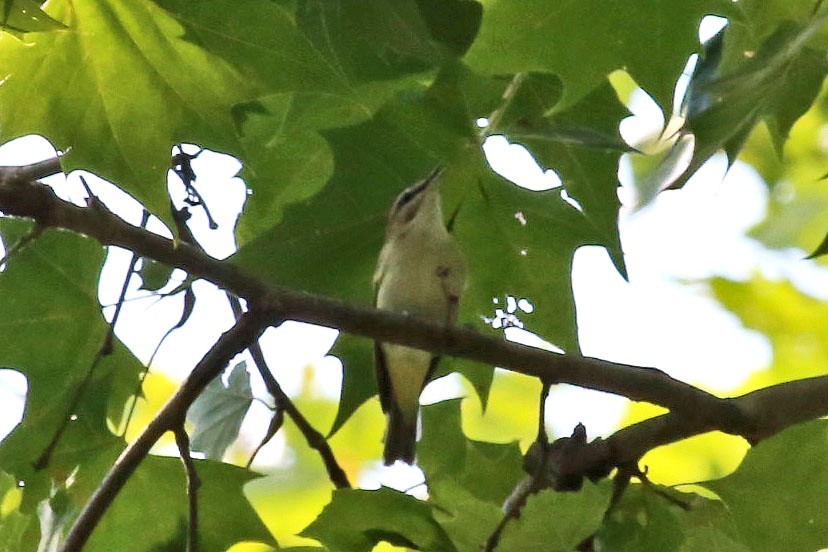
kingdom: Animalia
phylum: Chordata
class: Aves
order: Passeriformes
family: Vireonidae
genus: Vireo
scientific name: Vireo olivaceus
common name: Red-eyed vireo
